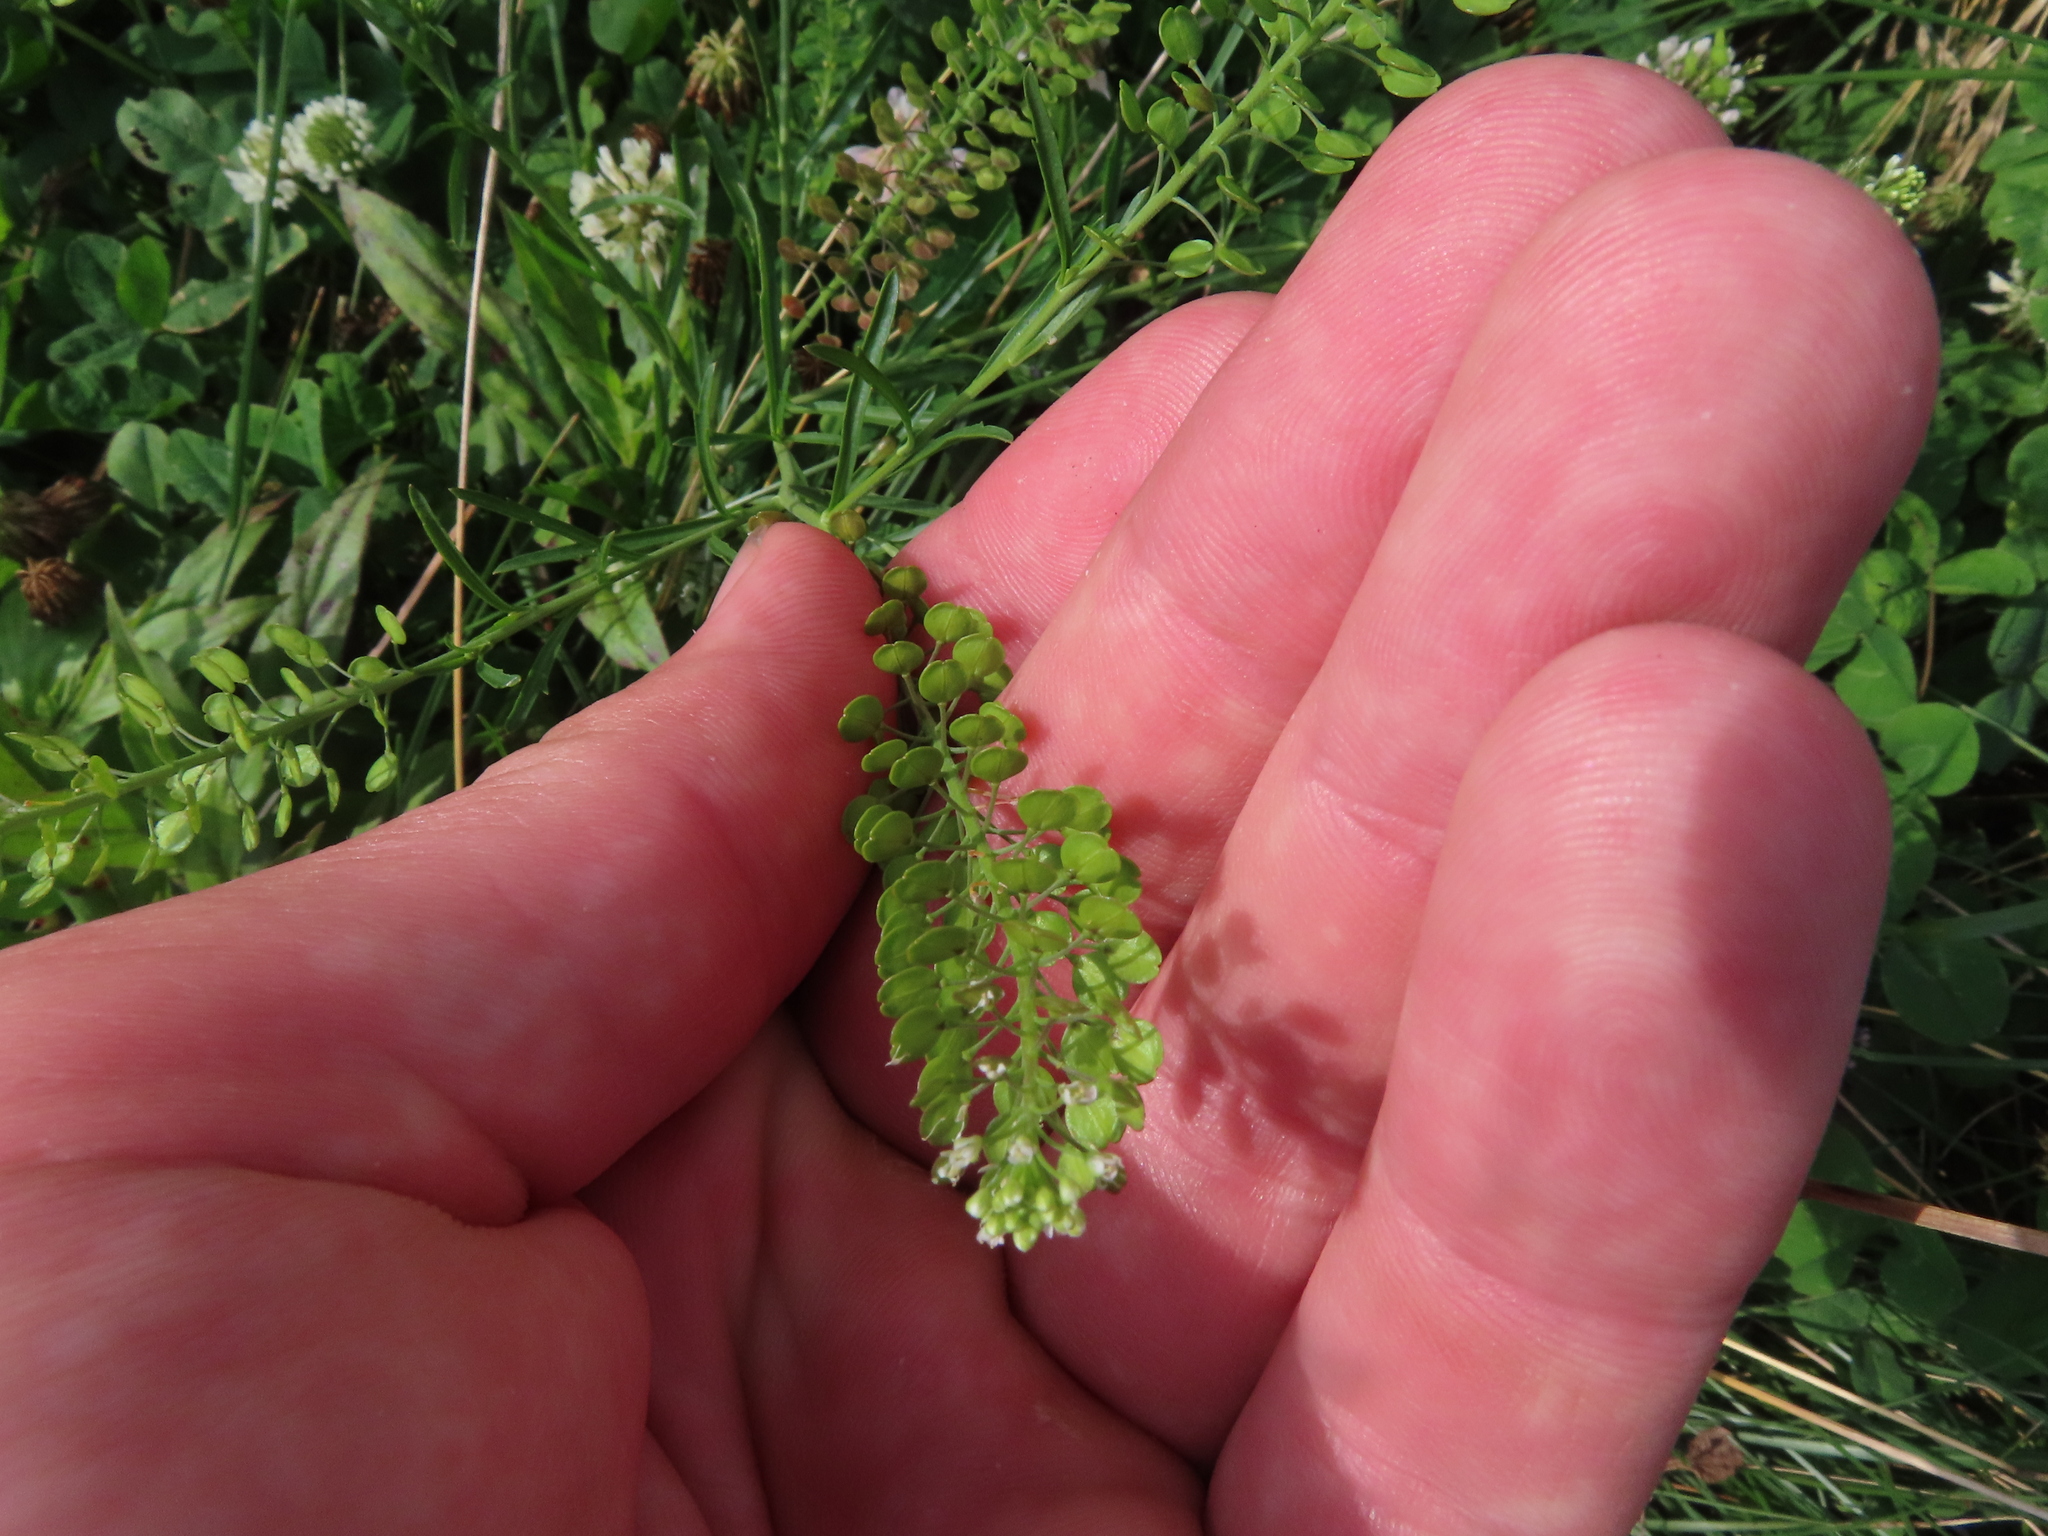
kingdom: Plantae
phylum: Tracheophyta
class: Magnoliopsida
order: Brassicales
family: Brassicaceae
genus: Lepidium
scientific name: Lepidium virginicum
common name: Least pepperwort
